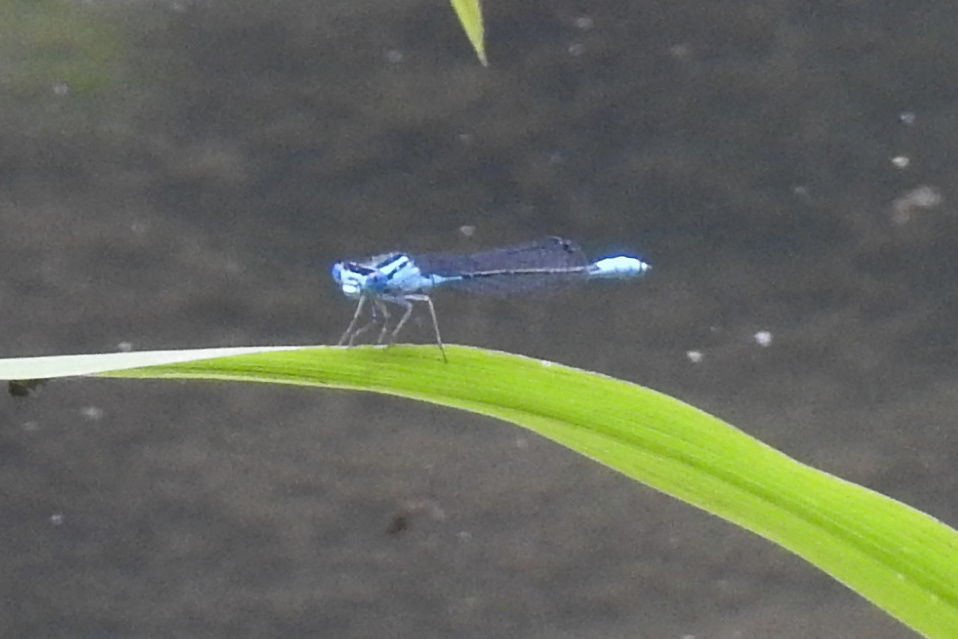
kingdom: Animalia
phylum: Arthropoda
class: Insecta
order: Odonata
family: Coenagrionidae
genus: Enallagma
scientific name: Enallagma aspersum
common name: Azure bluet
